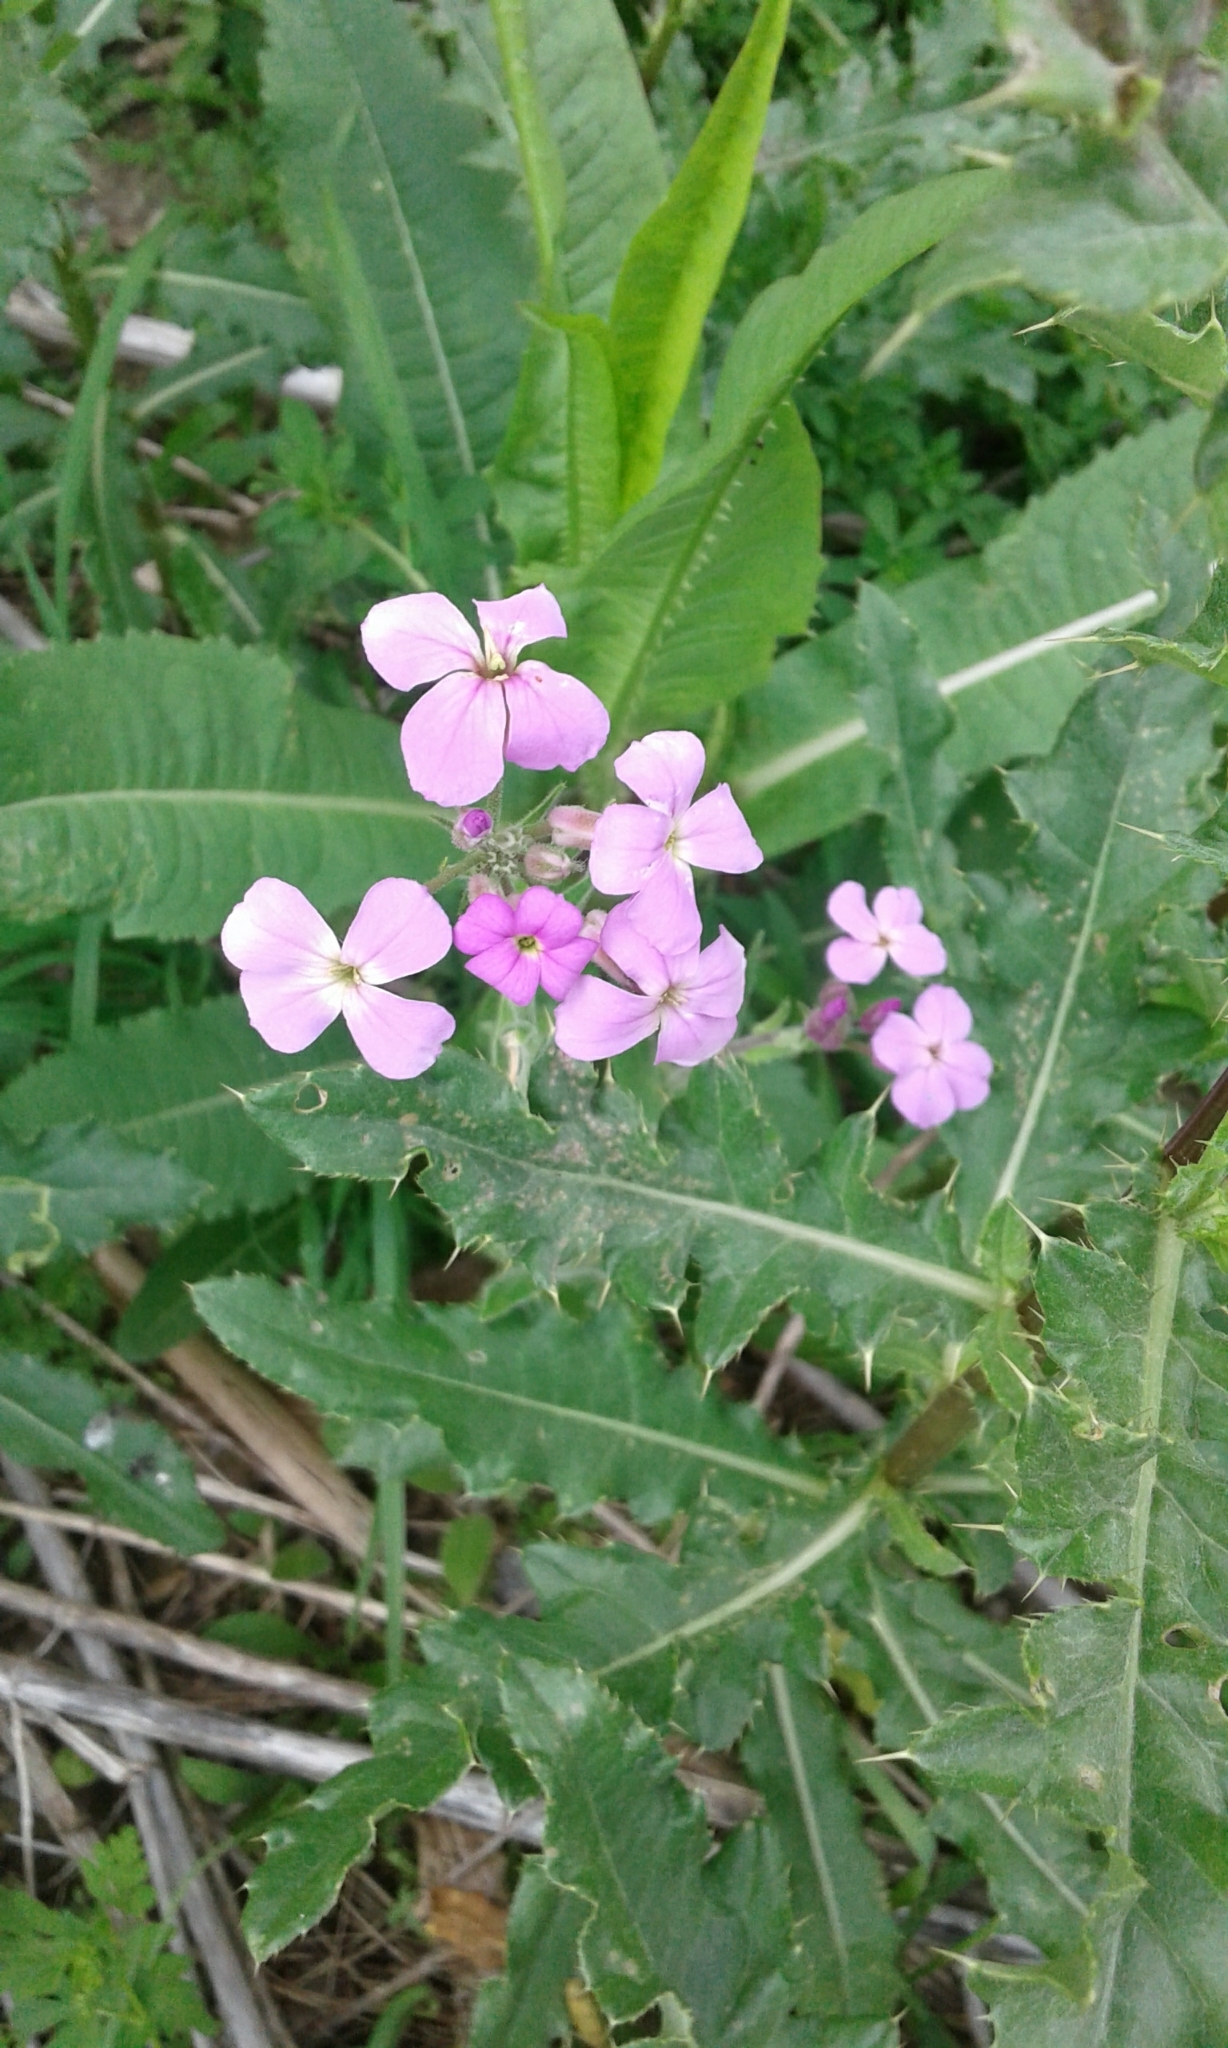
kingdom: Plantae
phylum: Tracheophyta
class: Magnoliopsida
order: Brassicales
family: Brassicaceae
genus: Hesperis
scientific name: Hesperis matronalis
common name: Dame's-violet
